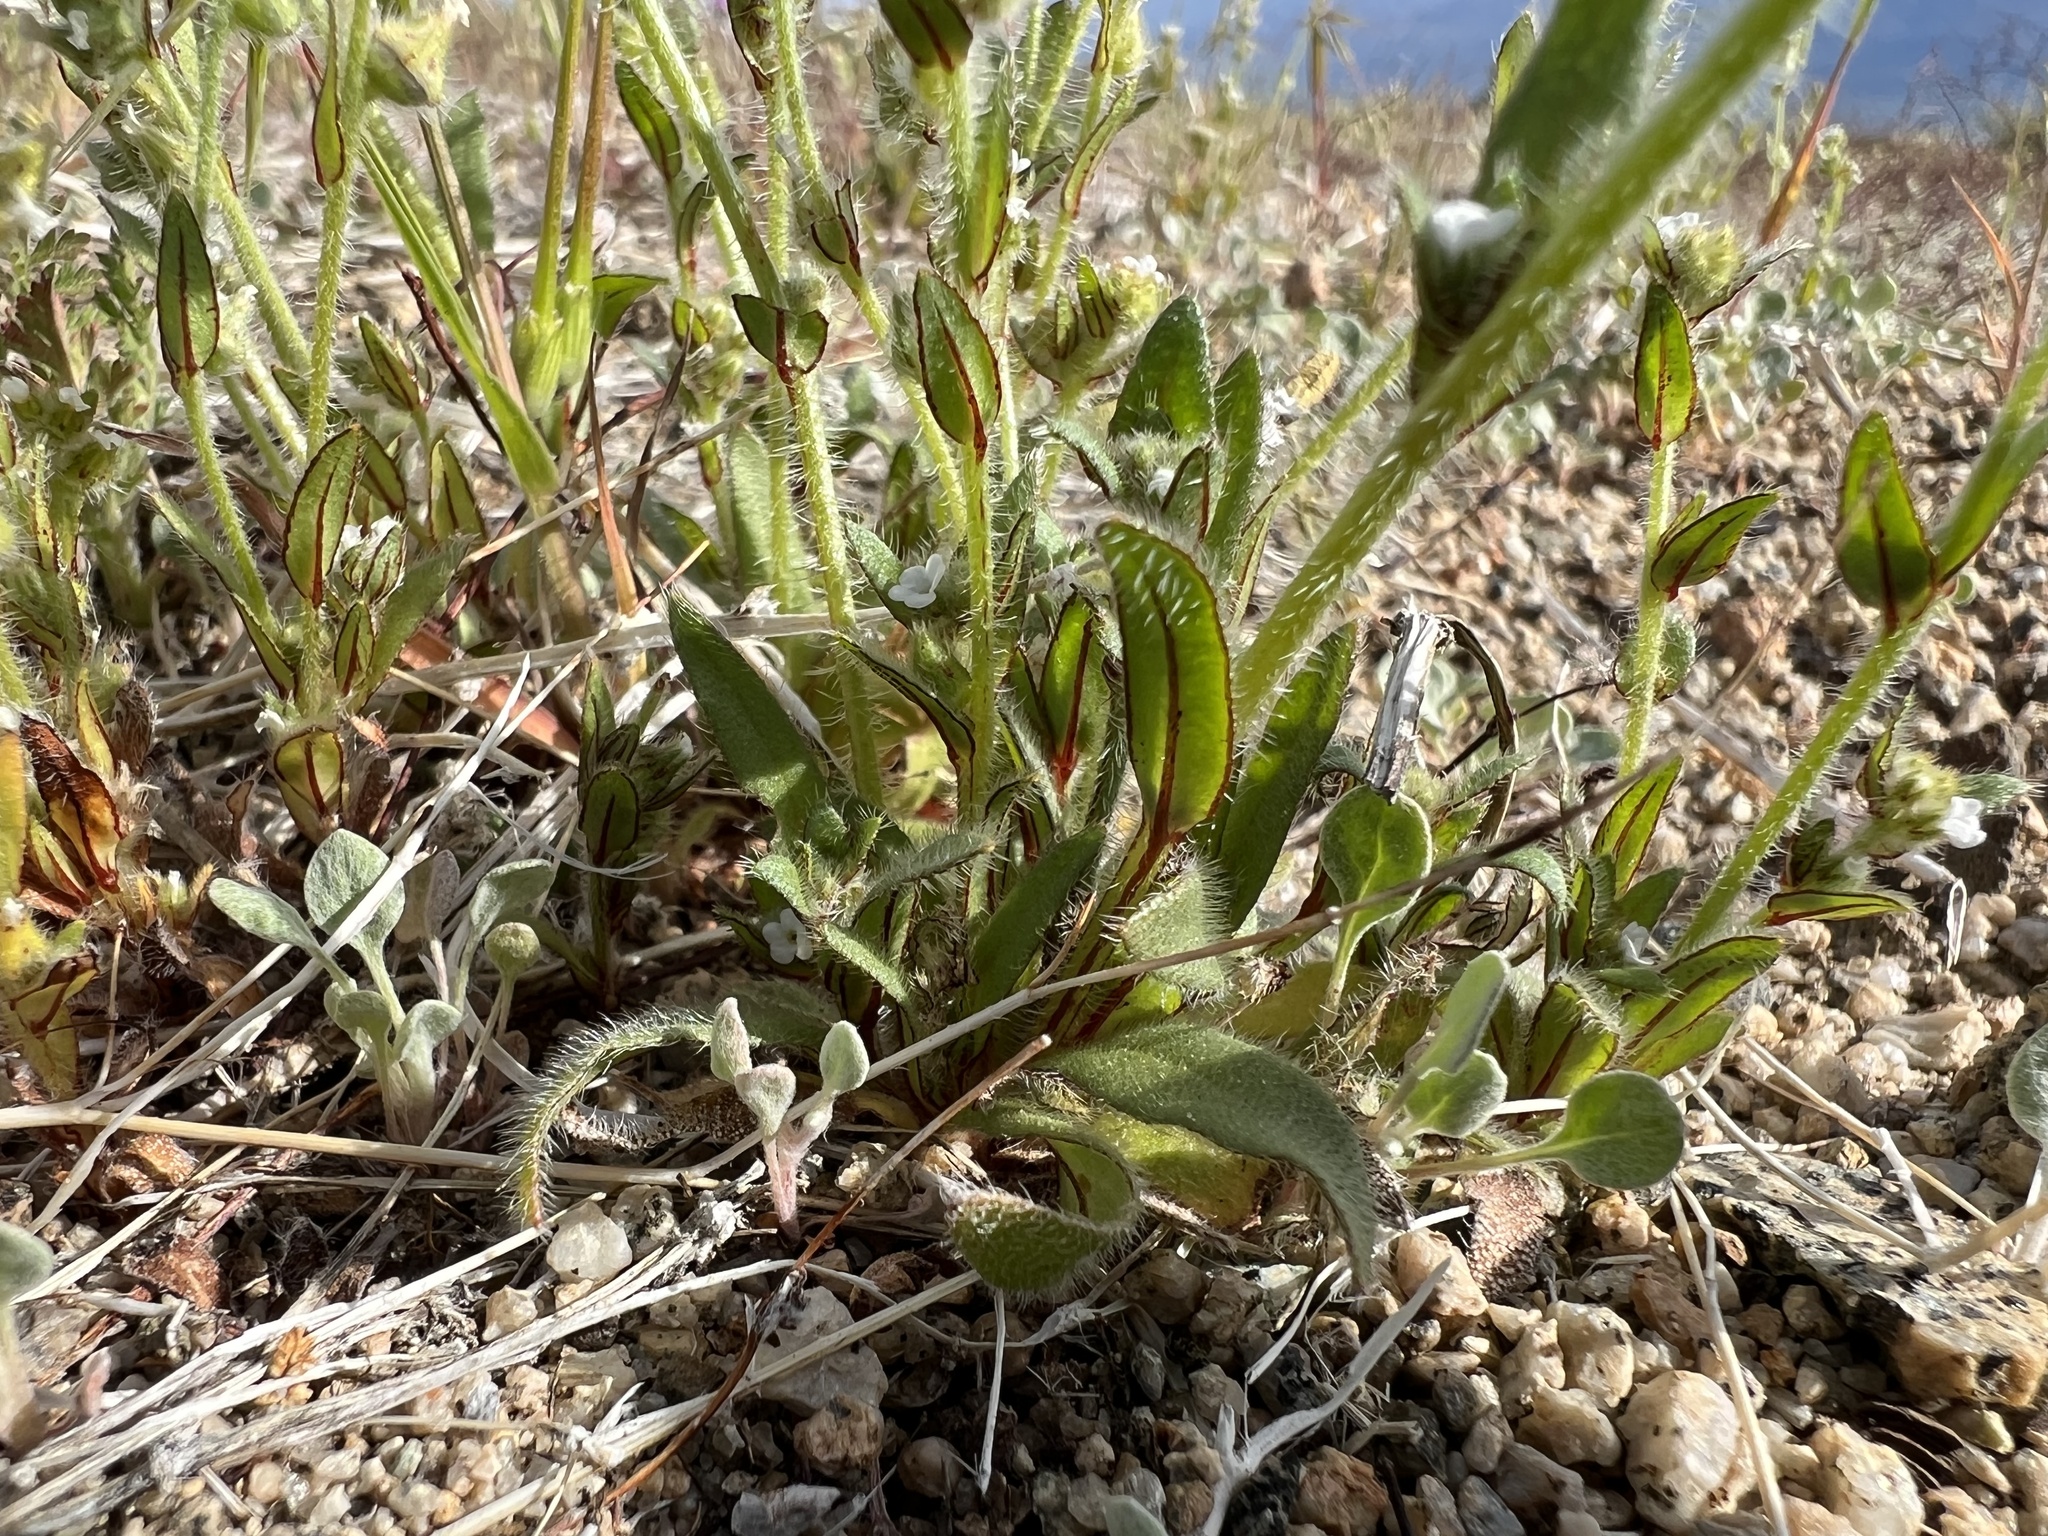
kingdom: Plantae
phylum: Tracheophyta
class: Magnoliopsida
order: Boraginales
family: Boraginaceae
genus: Plagiobothrys
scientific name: Plagiobothrys arizonicus
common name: Arizona popcorn-flower
